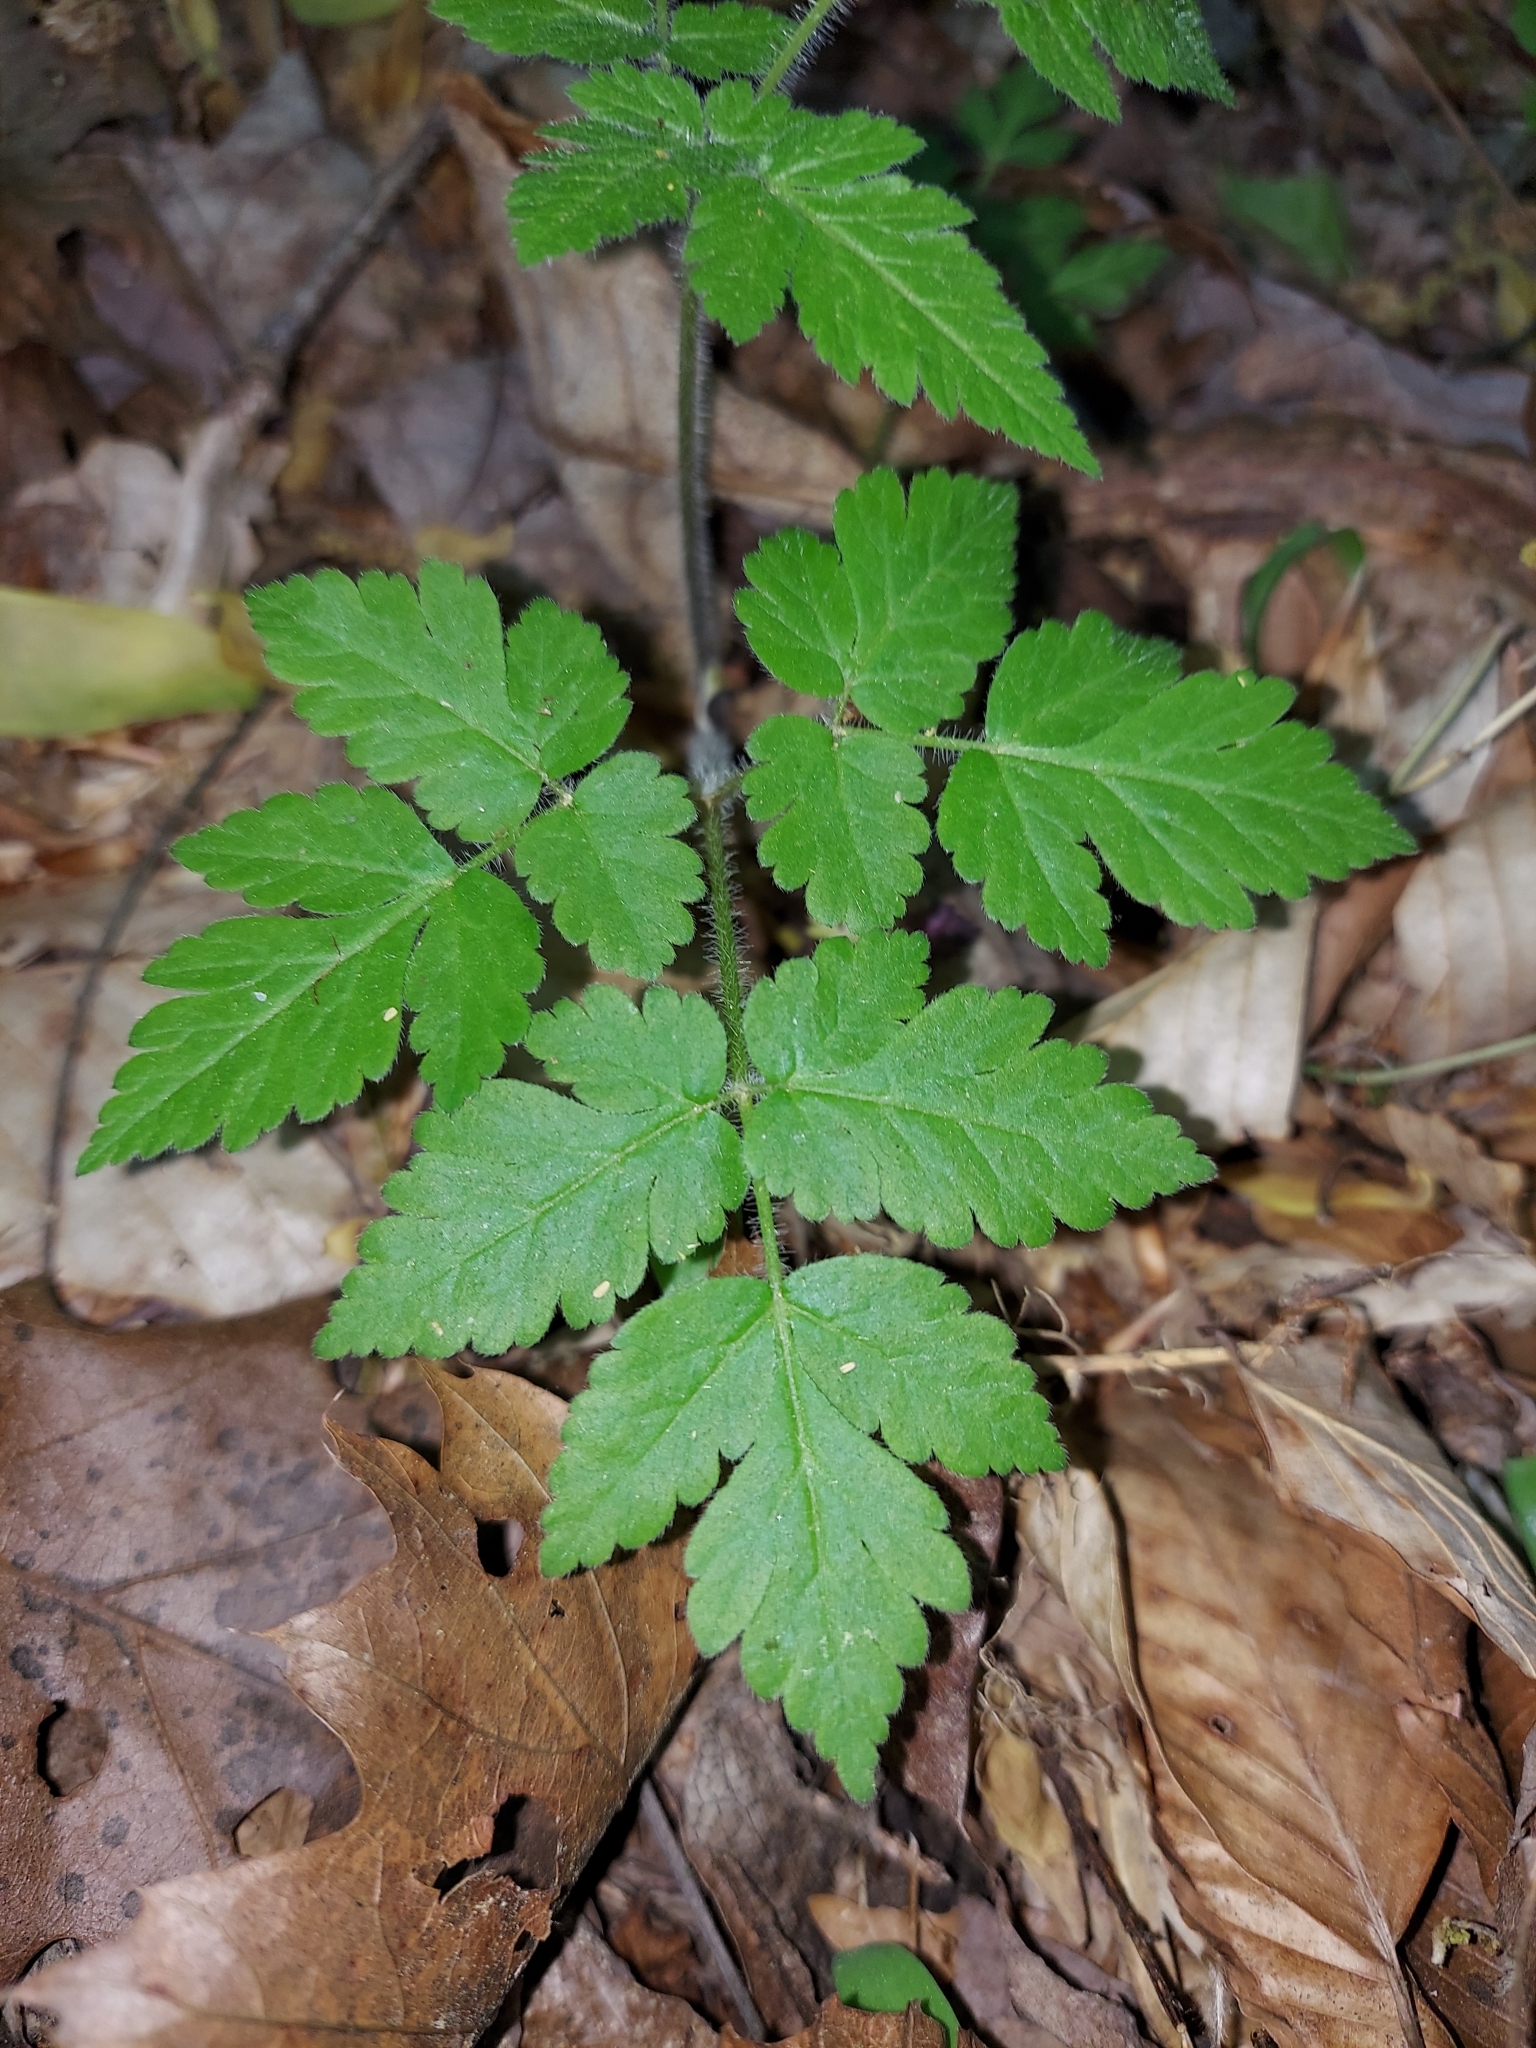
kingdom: Plantae
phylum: Tracheophyta
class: Magnoliopsida
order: Apiales
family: Apiaceae
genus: Osmorhiza
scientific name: Osmorhiza claytonii
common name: Hairy sweet cicely
